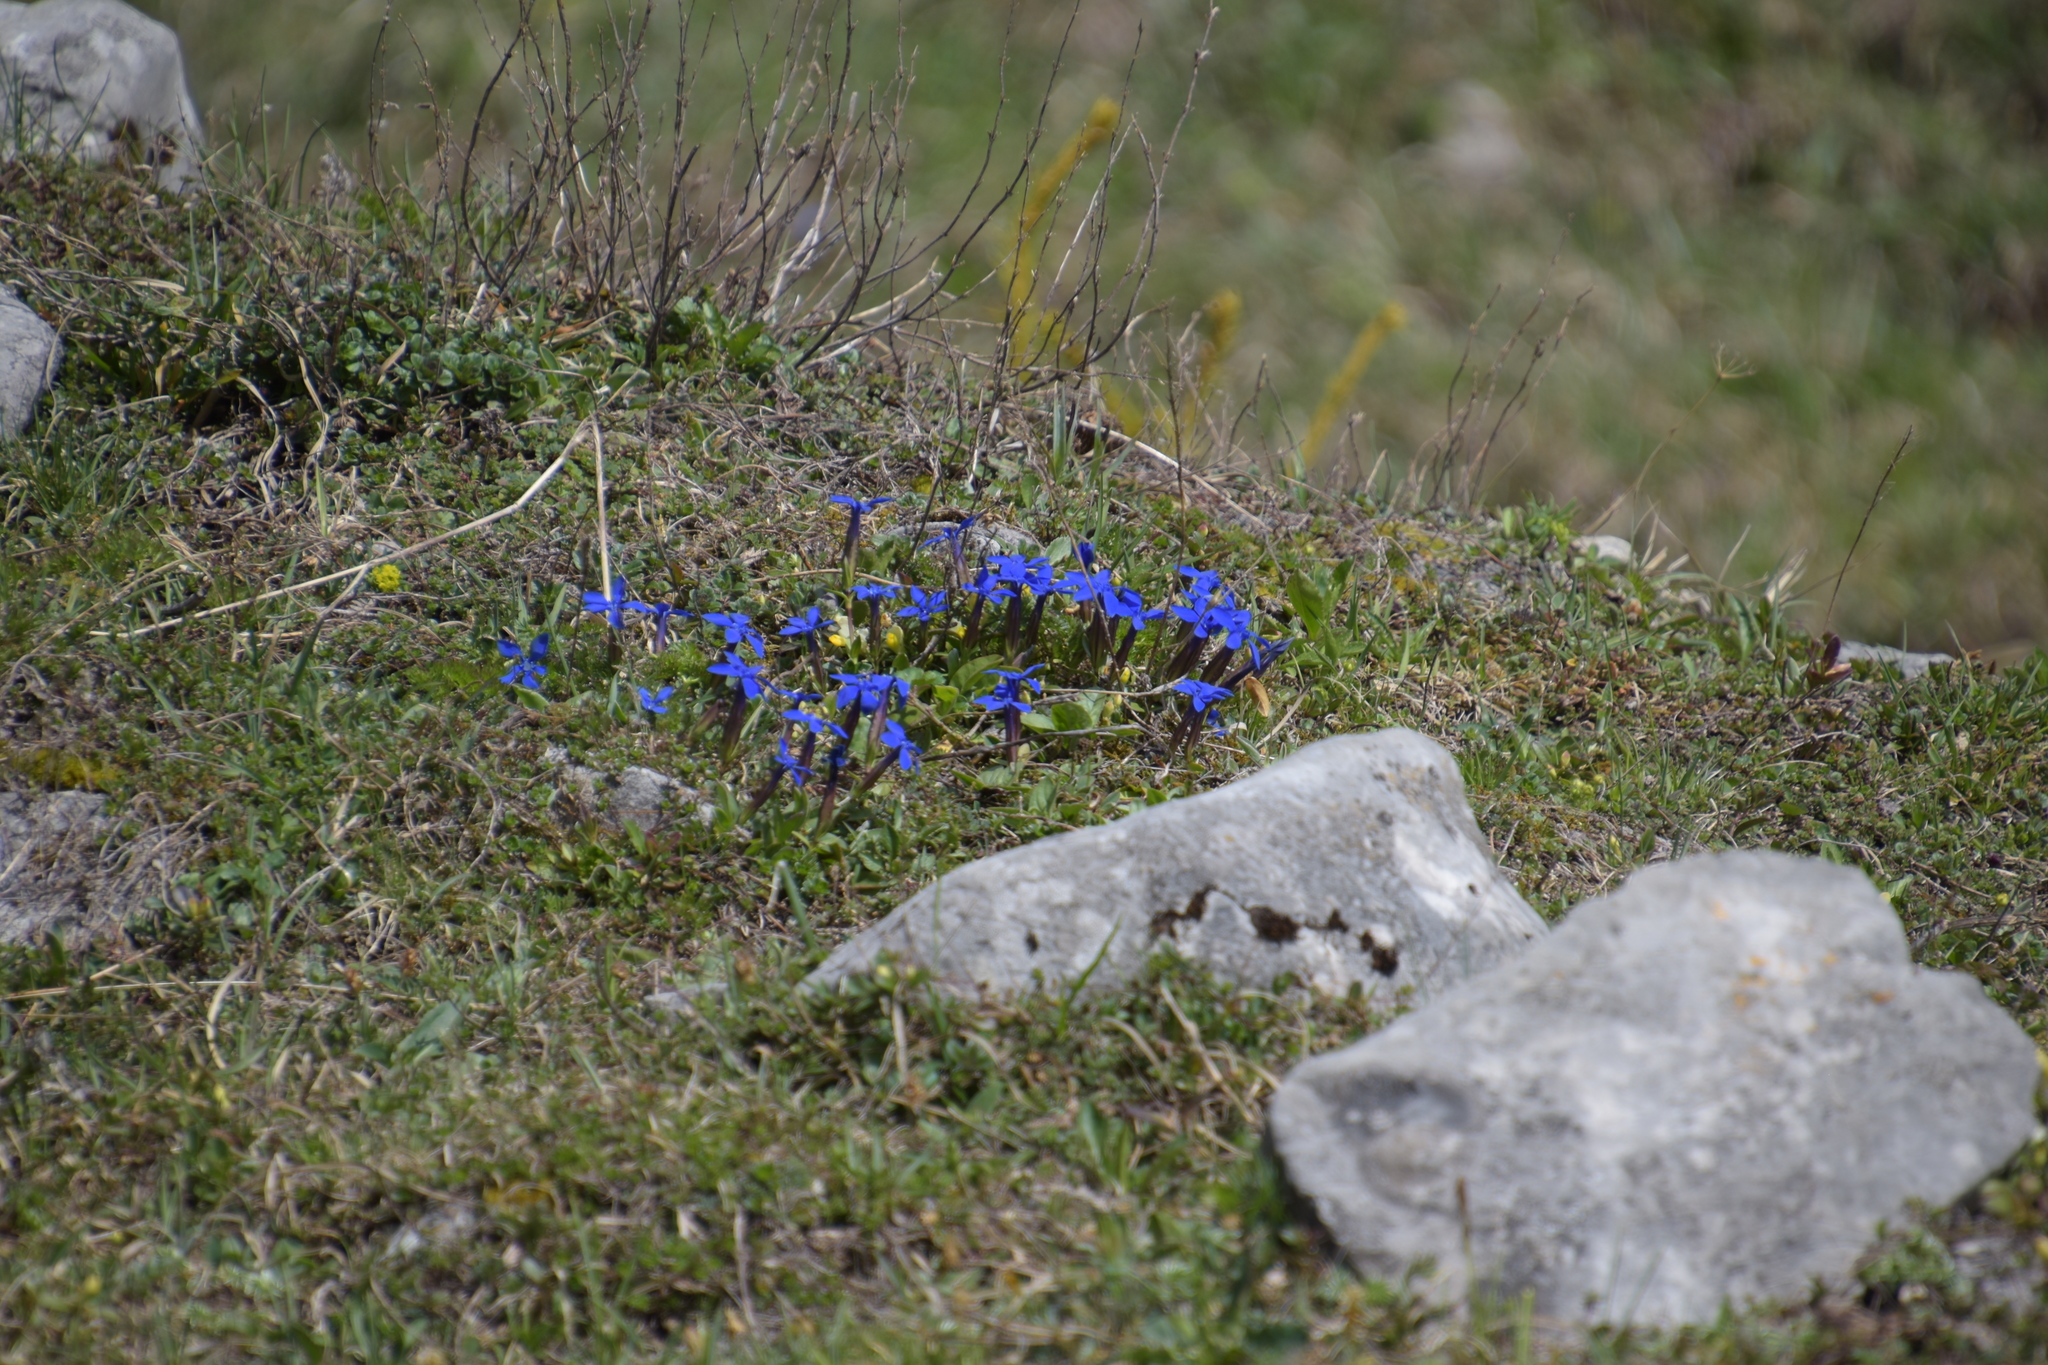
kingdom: Plantae
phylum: Tracheophyta
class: Magnoliopsida
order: Gentianales
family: Gentianaceae
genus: Gentiana
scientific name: Gentiana verna
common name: Spring gentian
